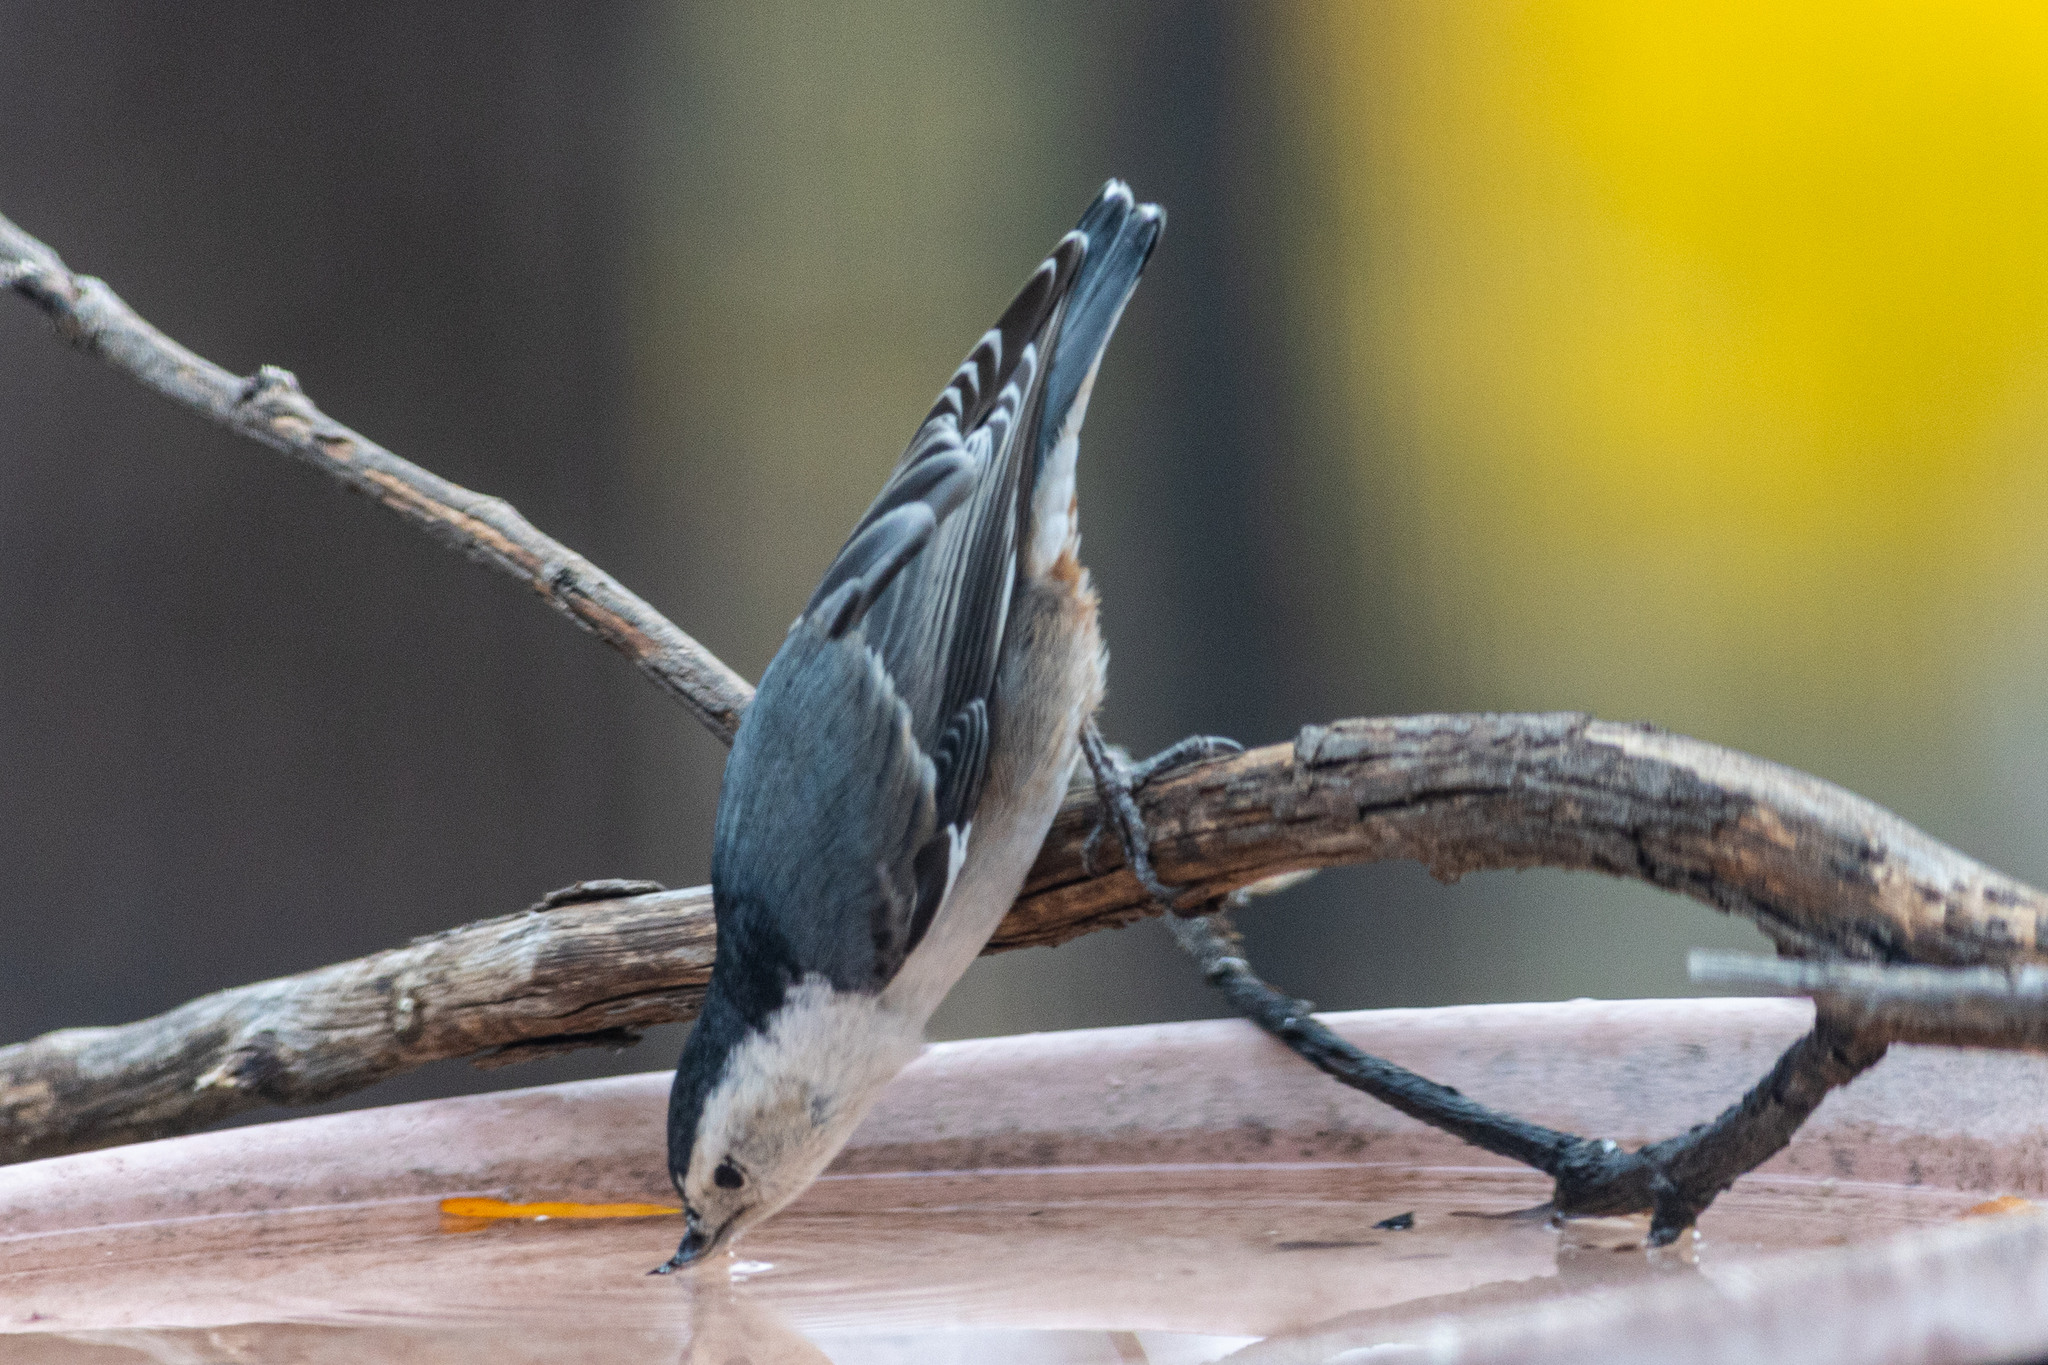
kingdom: Animalia
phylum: Chordata
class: Aves
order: Passeriformes
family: Sittidae
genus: Sitta
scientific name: Sitta carolinensis
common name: White-breasted nuthatch
